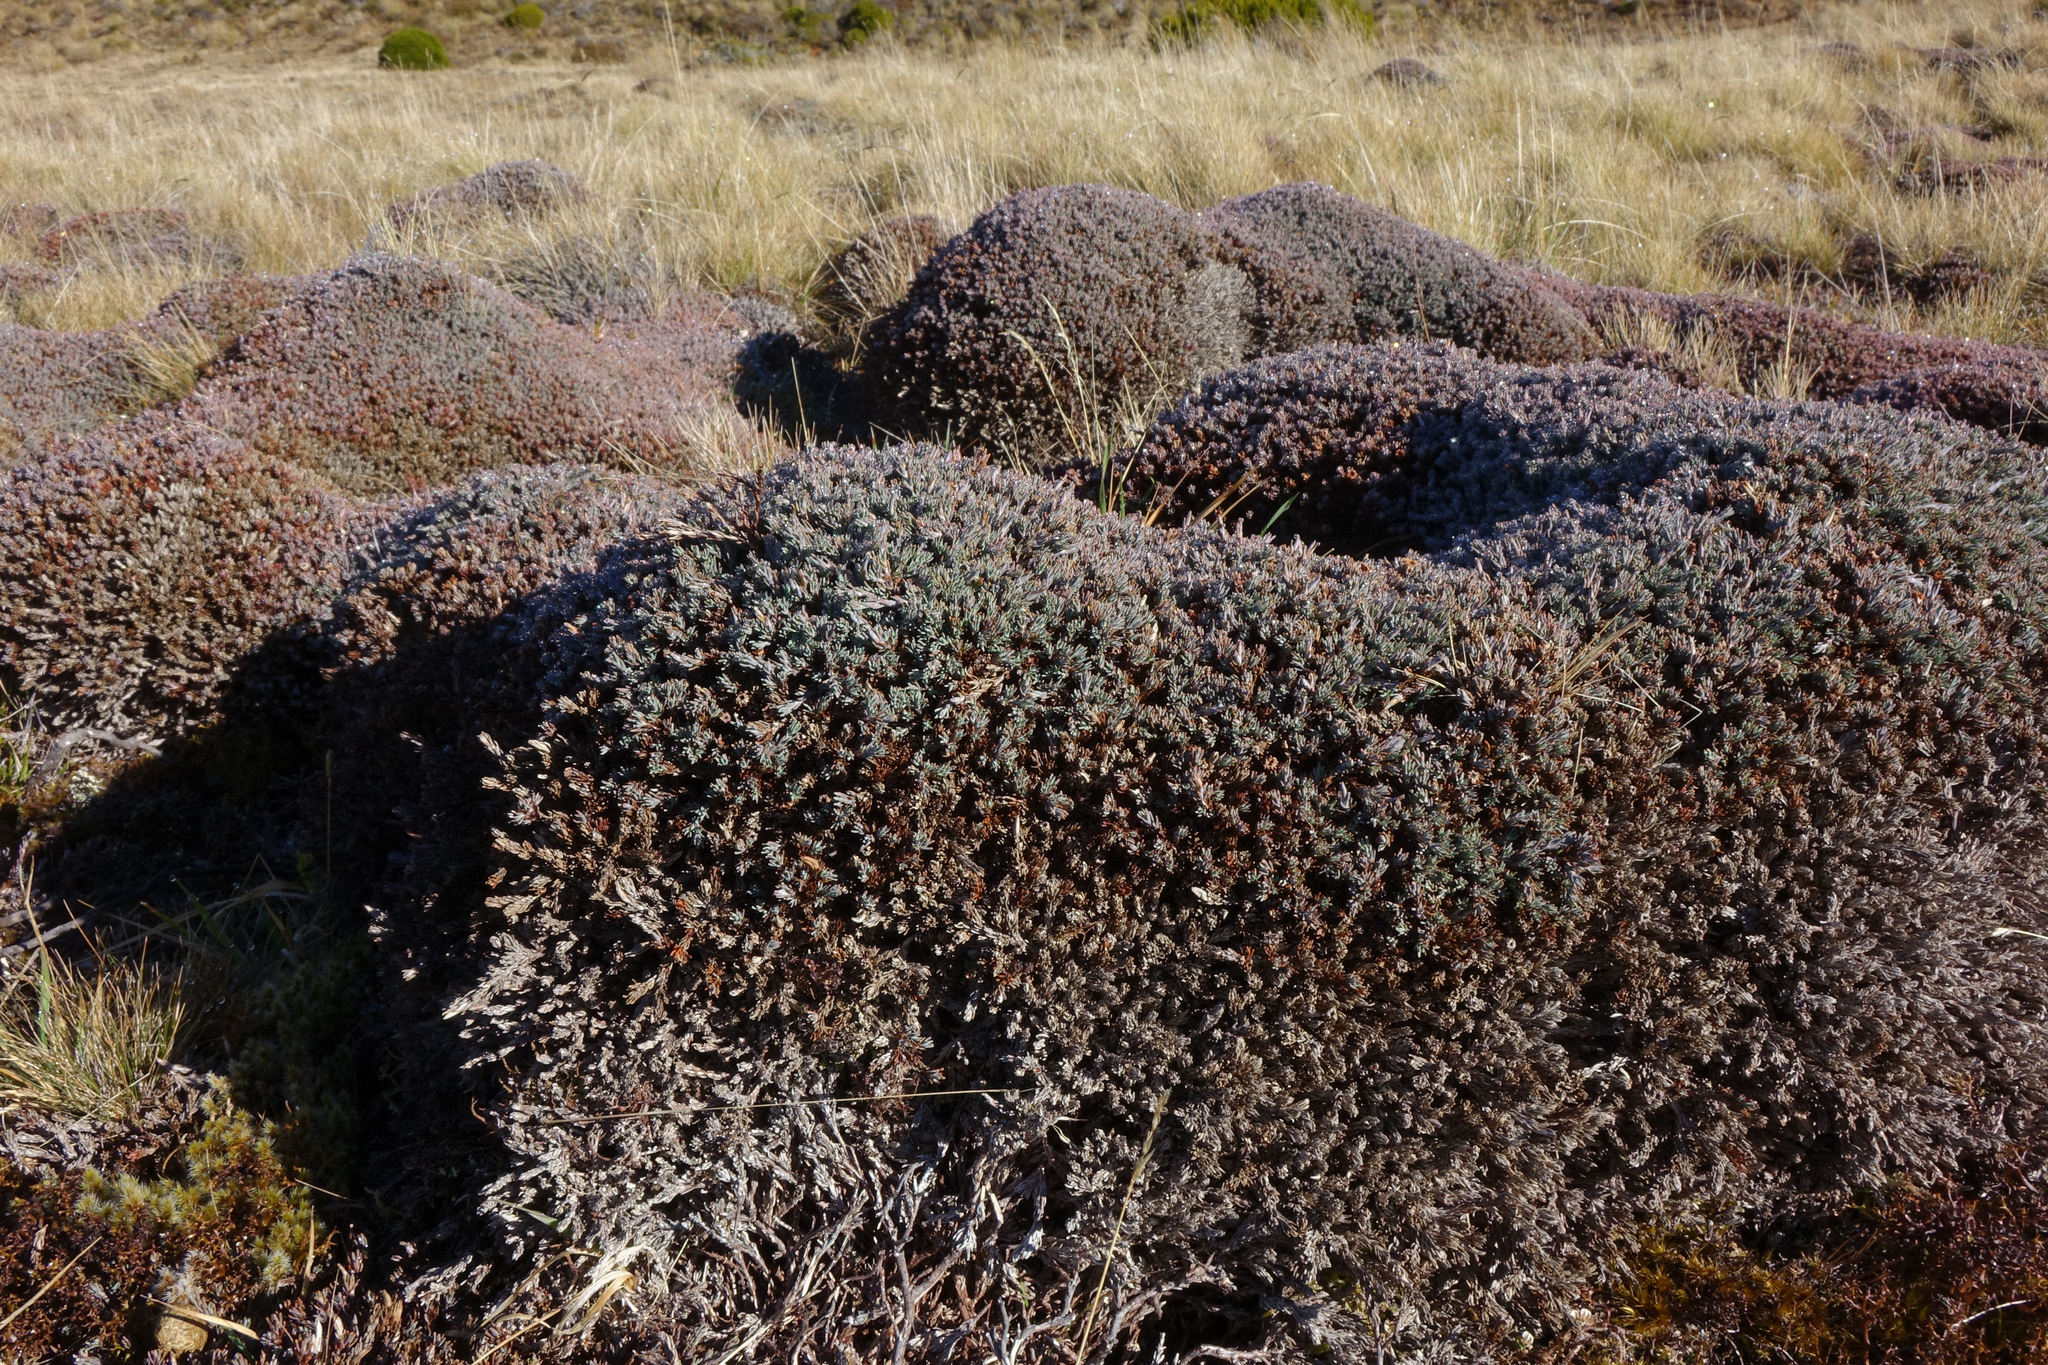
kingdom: Plantae
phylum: Tracheophyta
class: Magnoliopsida
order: Ericales
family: Ericaceae
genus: Dracophyllum
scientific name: Dracophyllum prostratum
